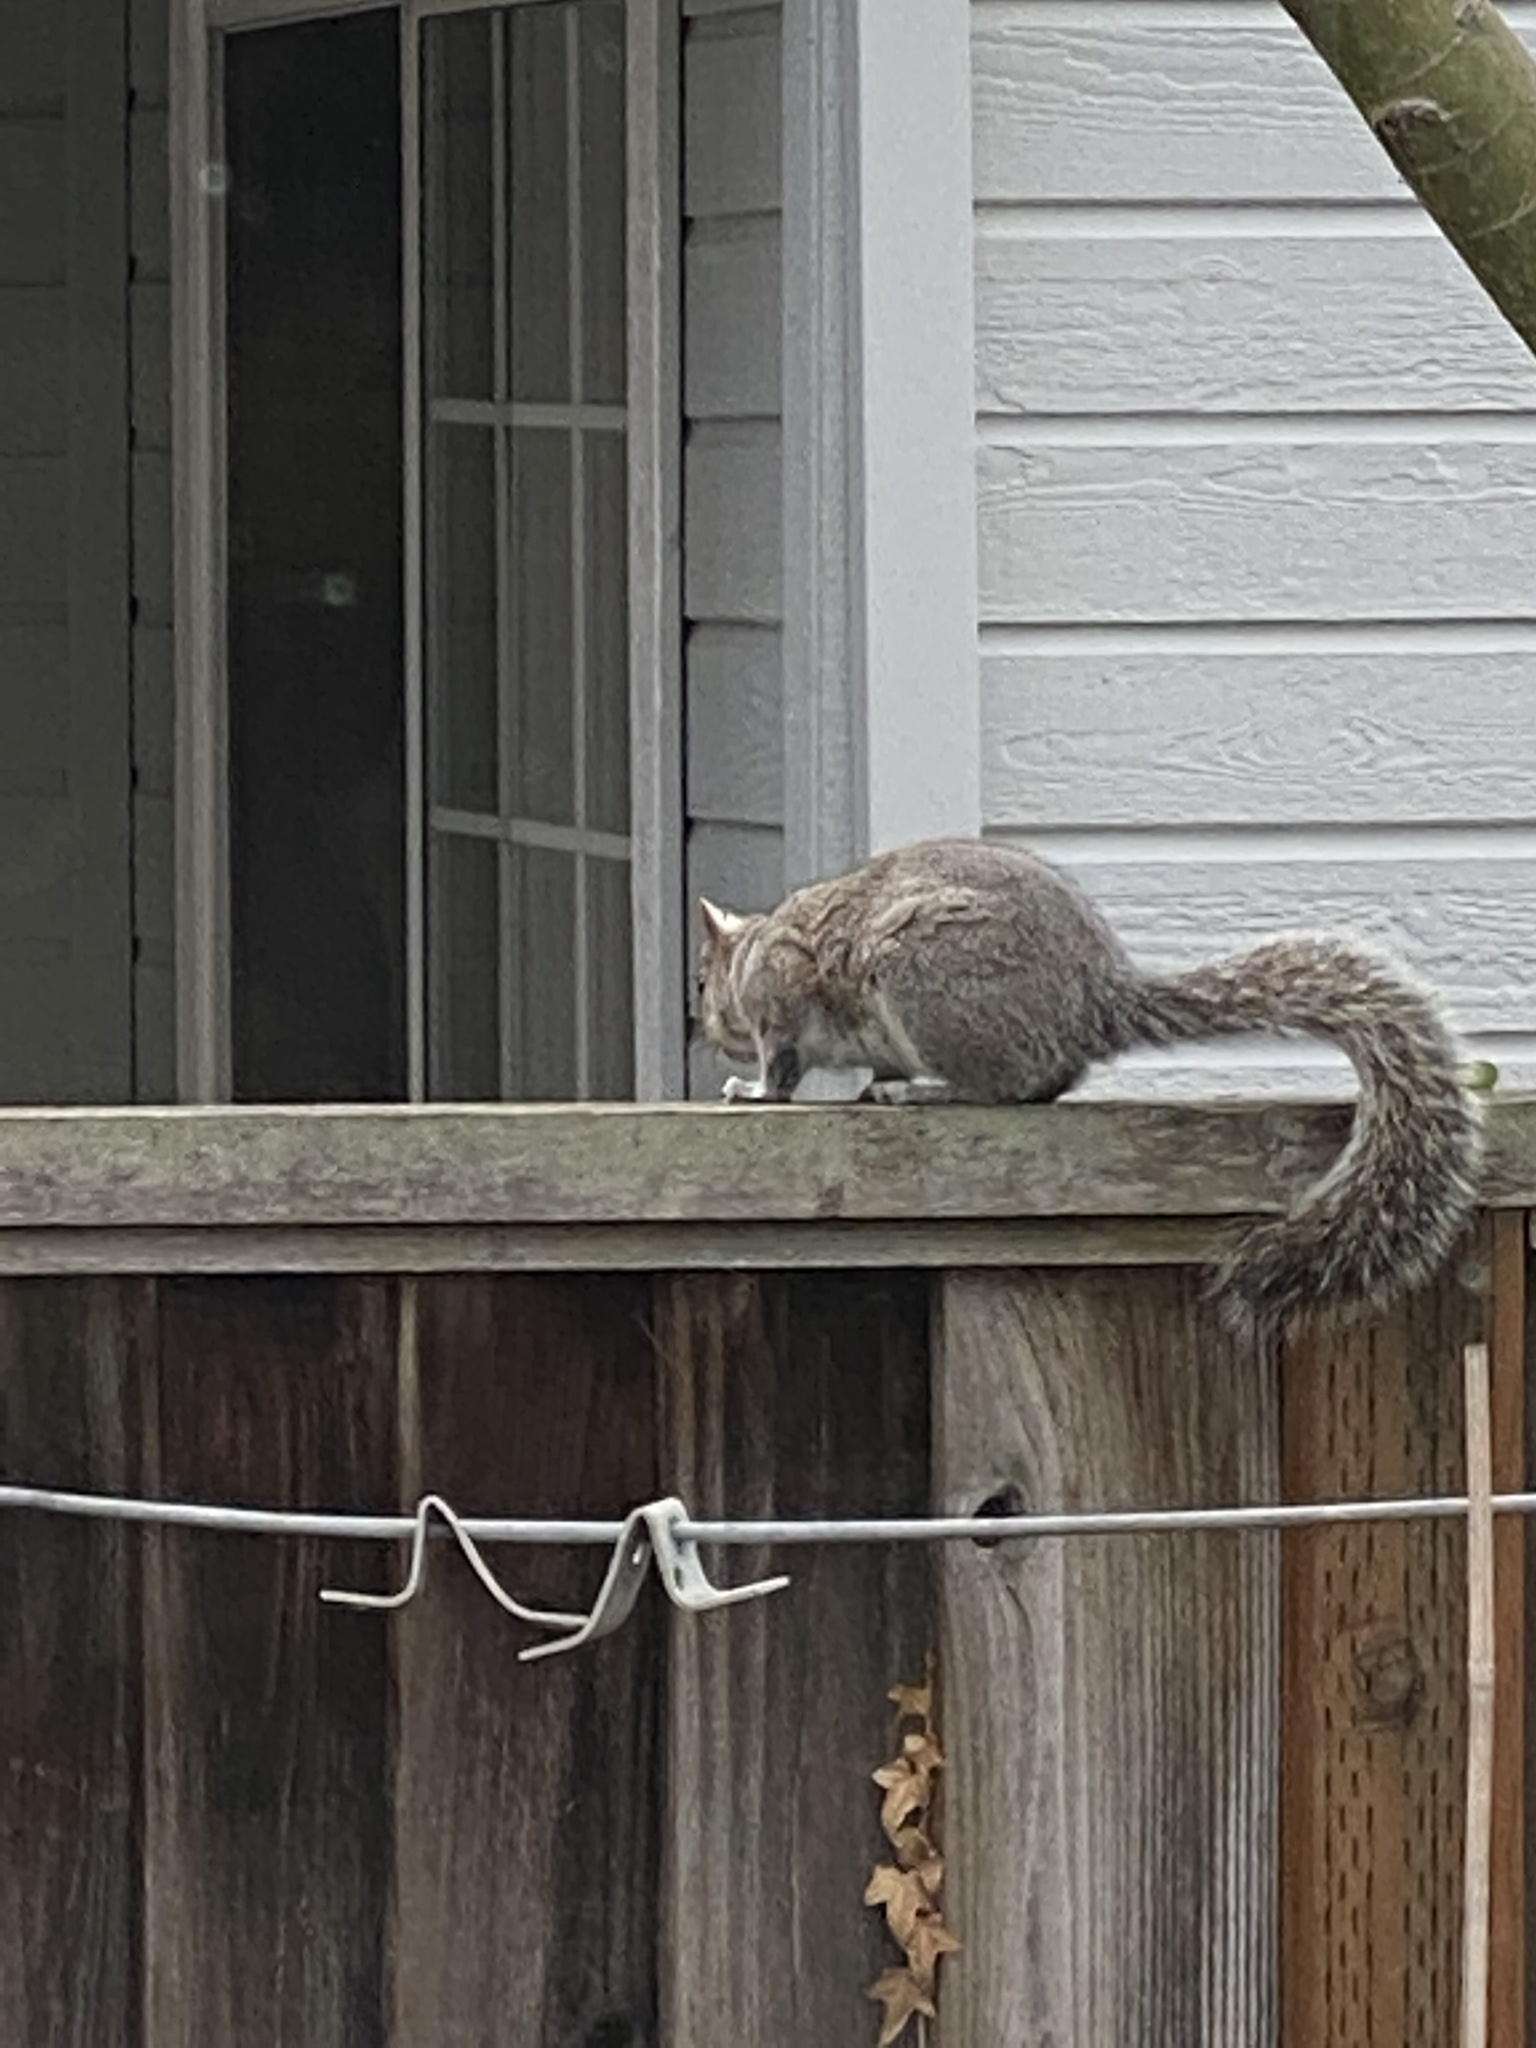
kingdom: Animalia
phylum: Chordata
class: Mammalia
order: Rodentia
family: Sciuridae
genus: Sciurus
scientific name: Sciurus carolinensis
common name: Eastern gray squirrel
